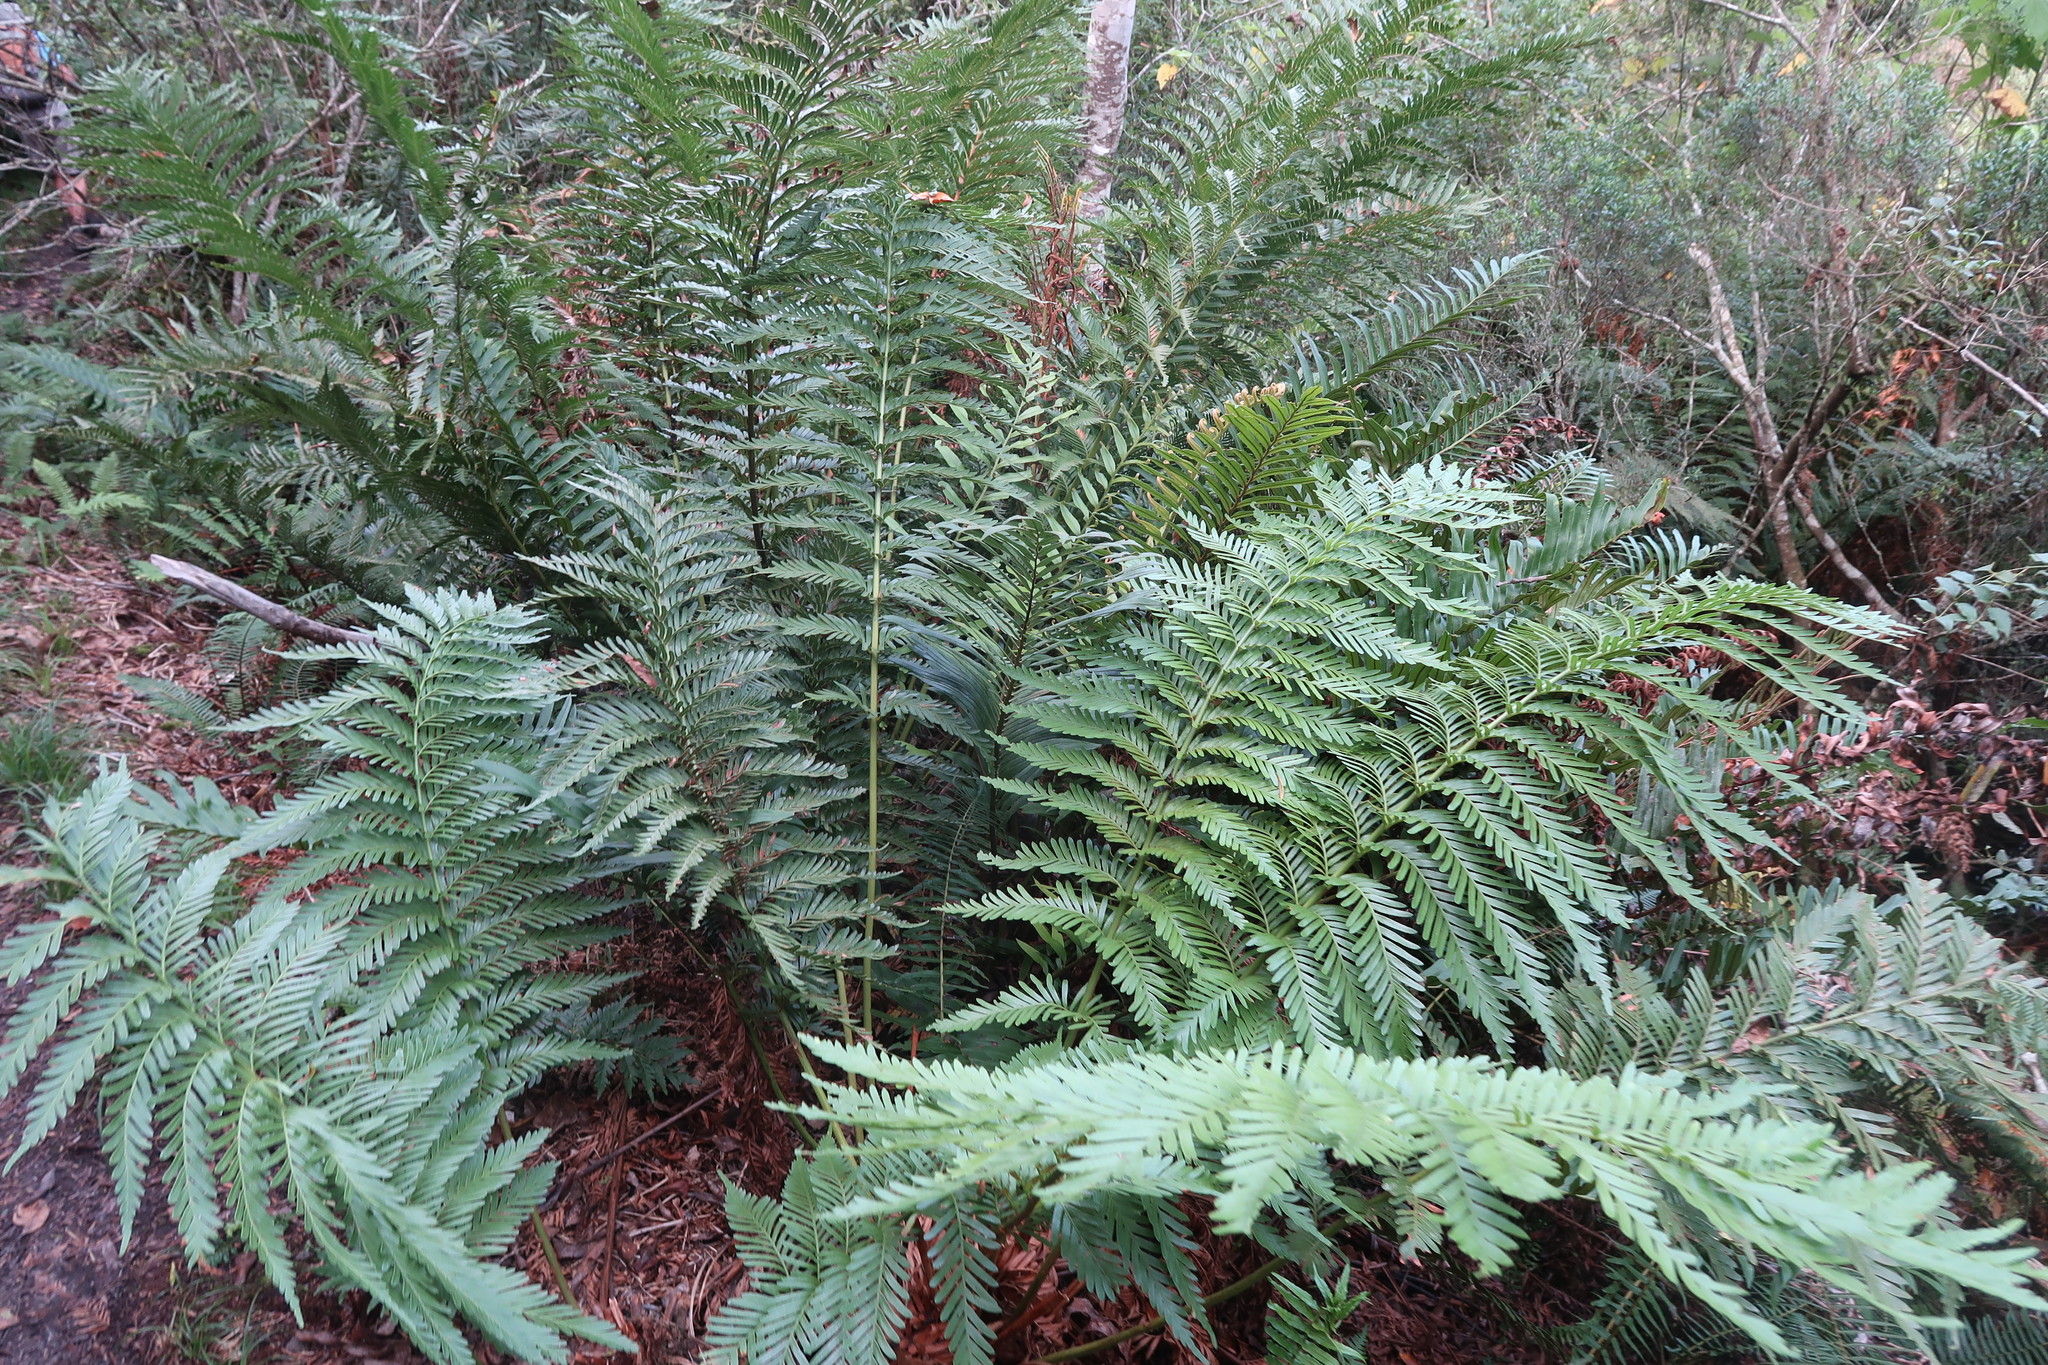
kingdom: Plantae
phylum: Tracheophyta
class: Polypodiopsida
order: Osmundales
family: Osmundaceae
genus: Todea
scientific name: Todea barbara
